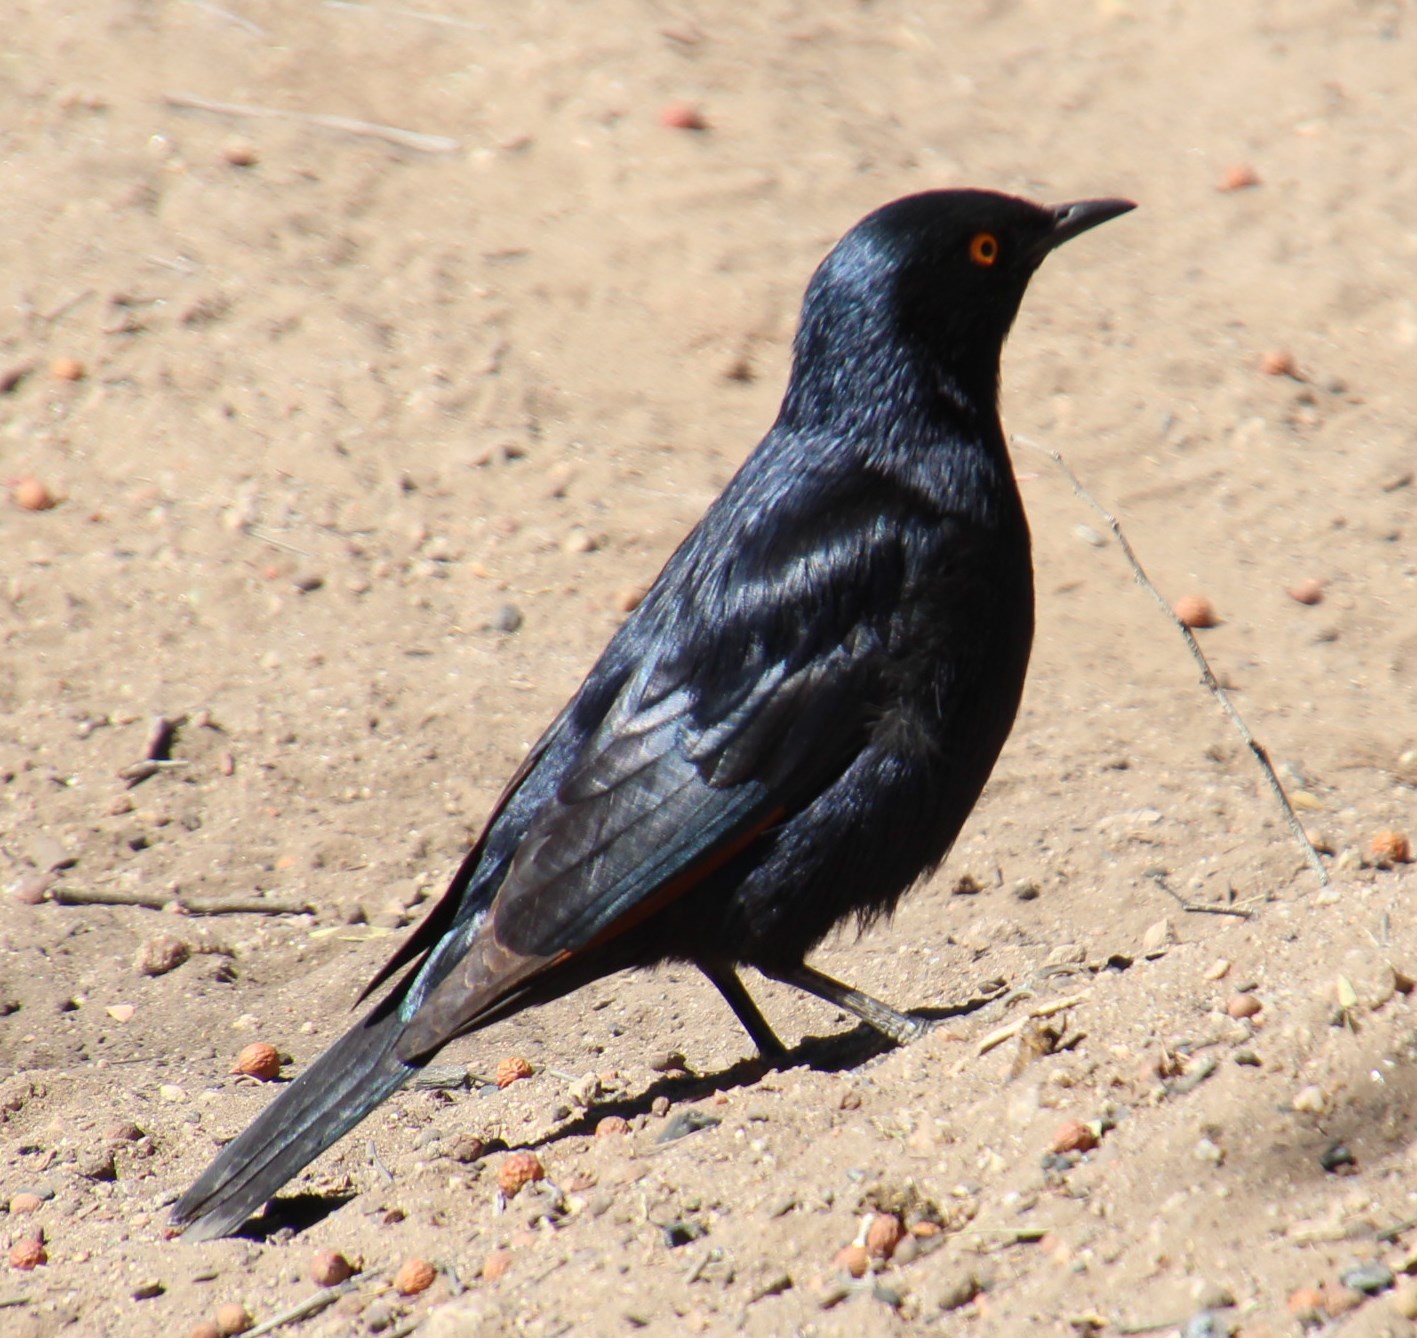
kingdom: Animalia
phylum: Chordata
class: Aves
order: Passeriformes
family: Sturnidae
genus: Onychognathus
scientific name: Onychognathus nabouroup
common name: Pale-winged starling
